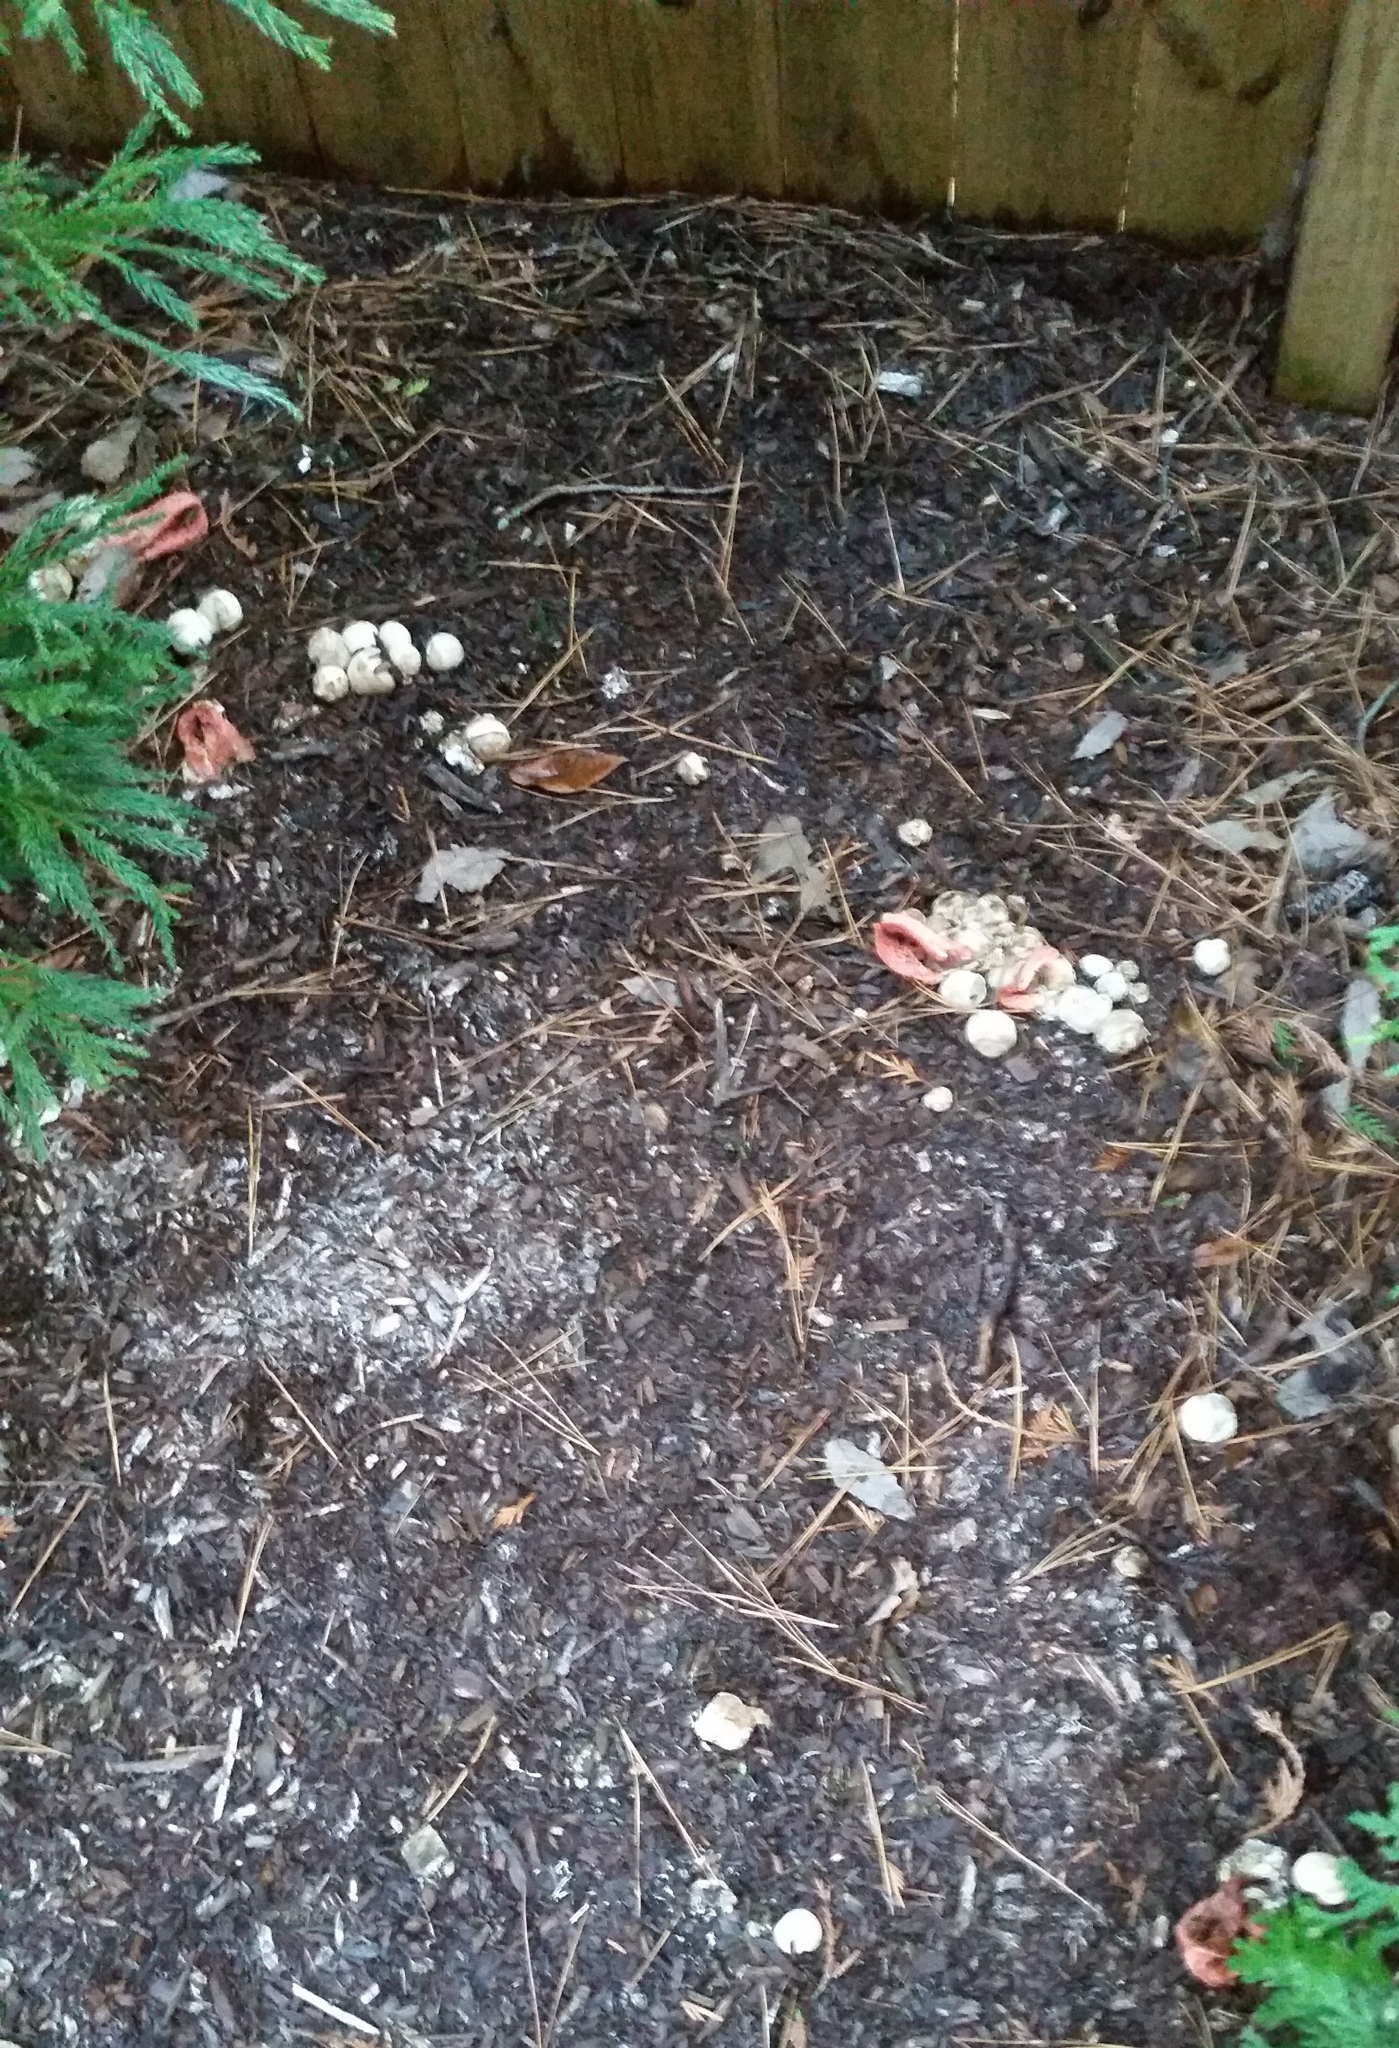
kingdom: Fungi
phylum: Basidiomycota
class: Agaricomycetes
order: Phallales
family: Phallaceae
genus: Clathrus
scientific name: Clathrus columnatus
